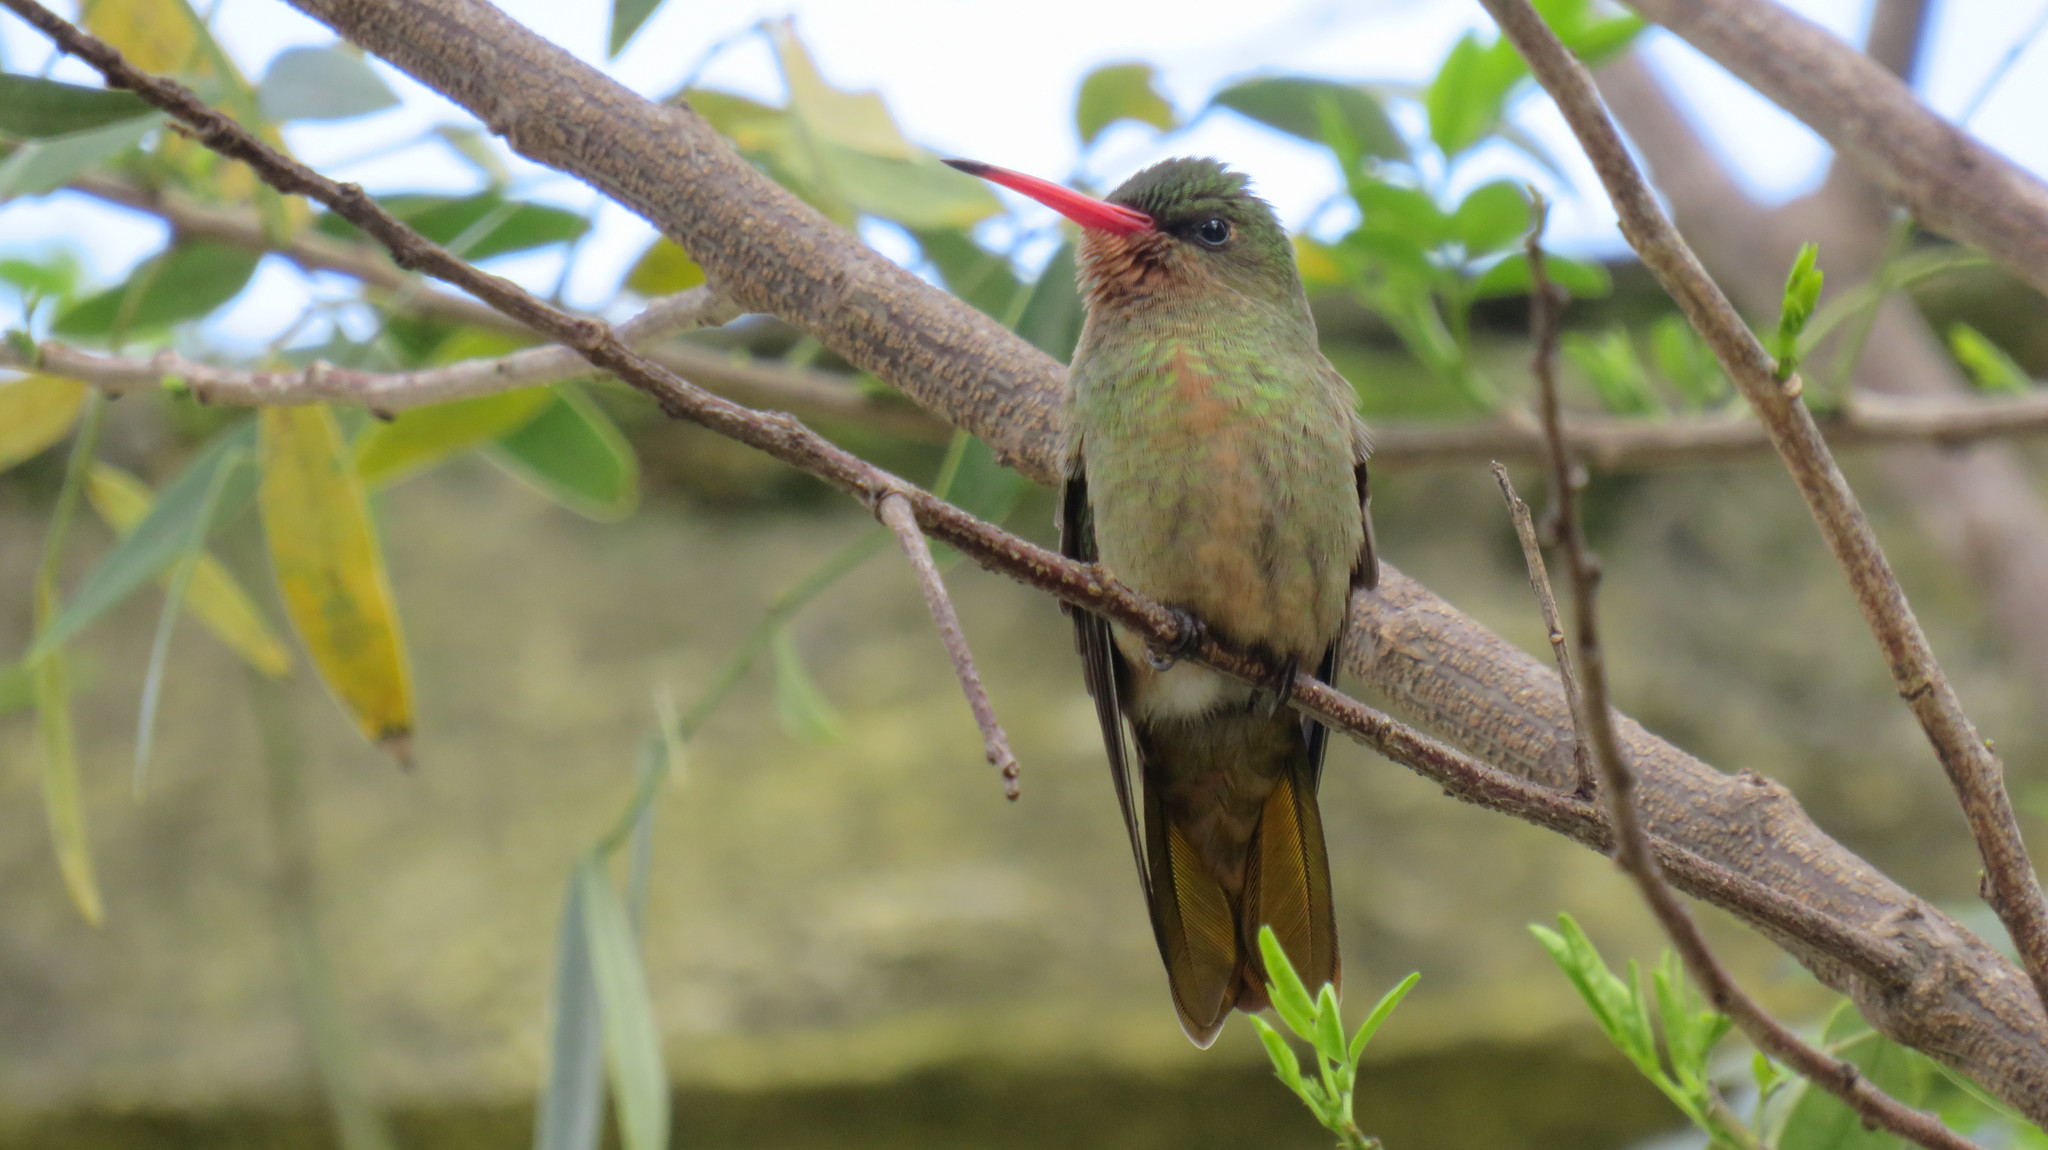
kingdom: Animalia
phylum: Chordata
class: Aves
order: Apodiformes
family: Trochilidae
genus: Hylocharis
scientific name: Hylocharis chrysura
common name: Gilded sapphire
